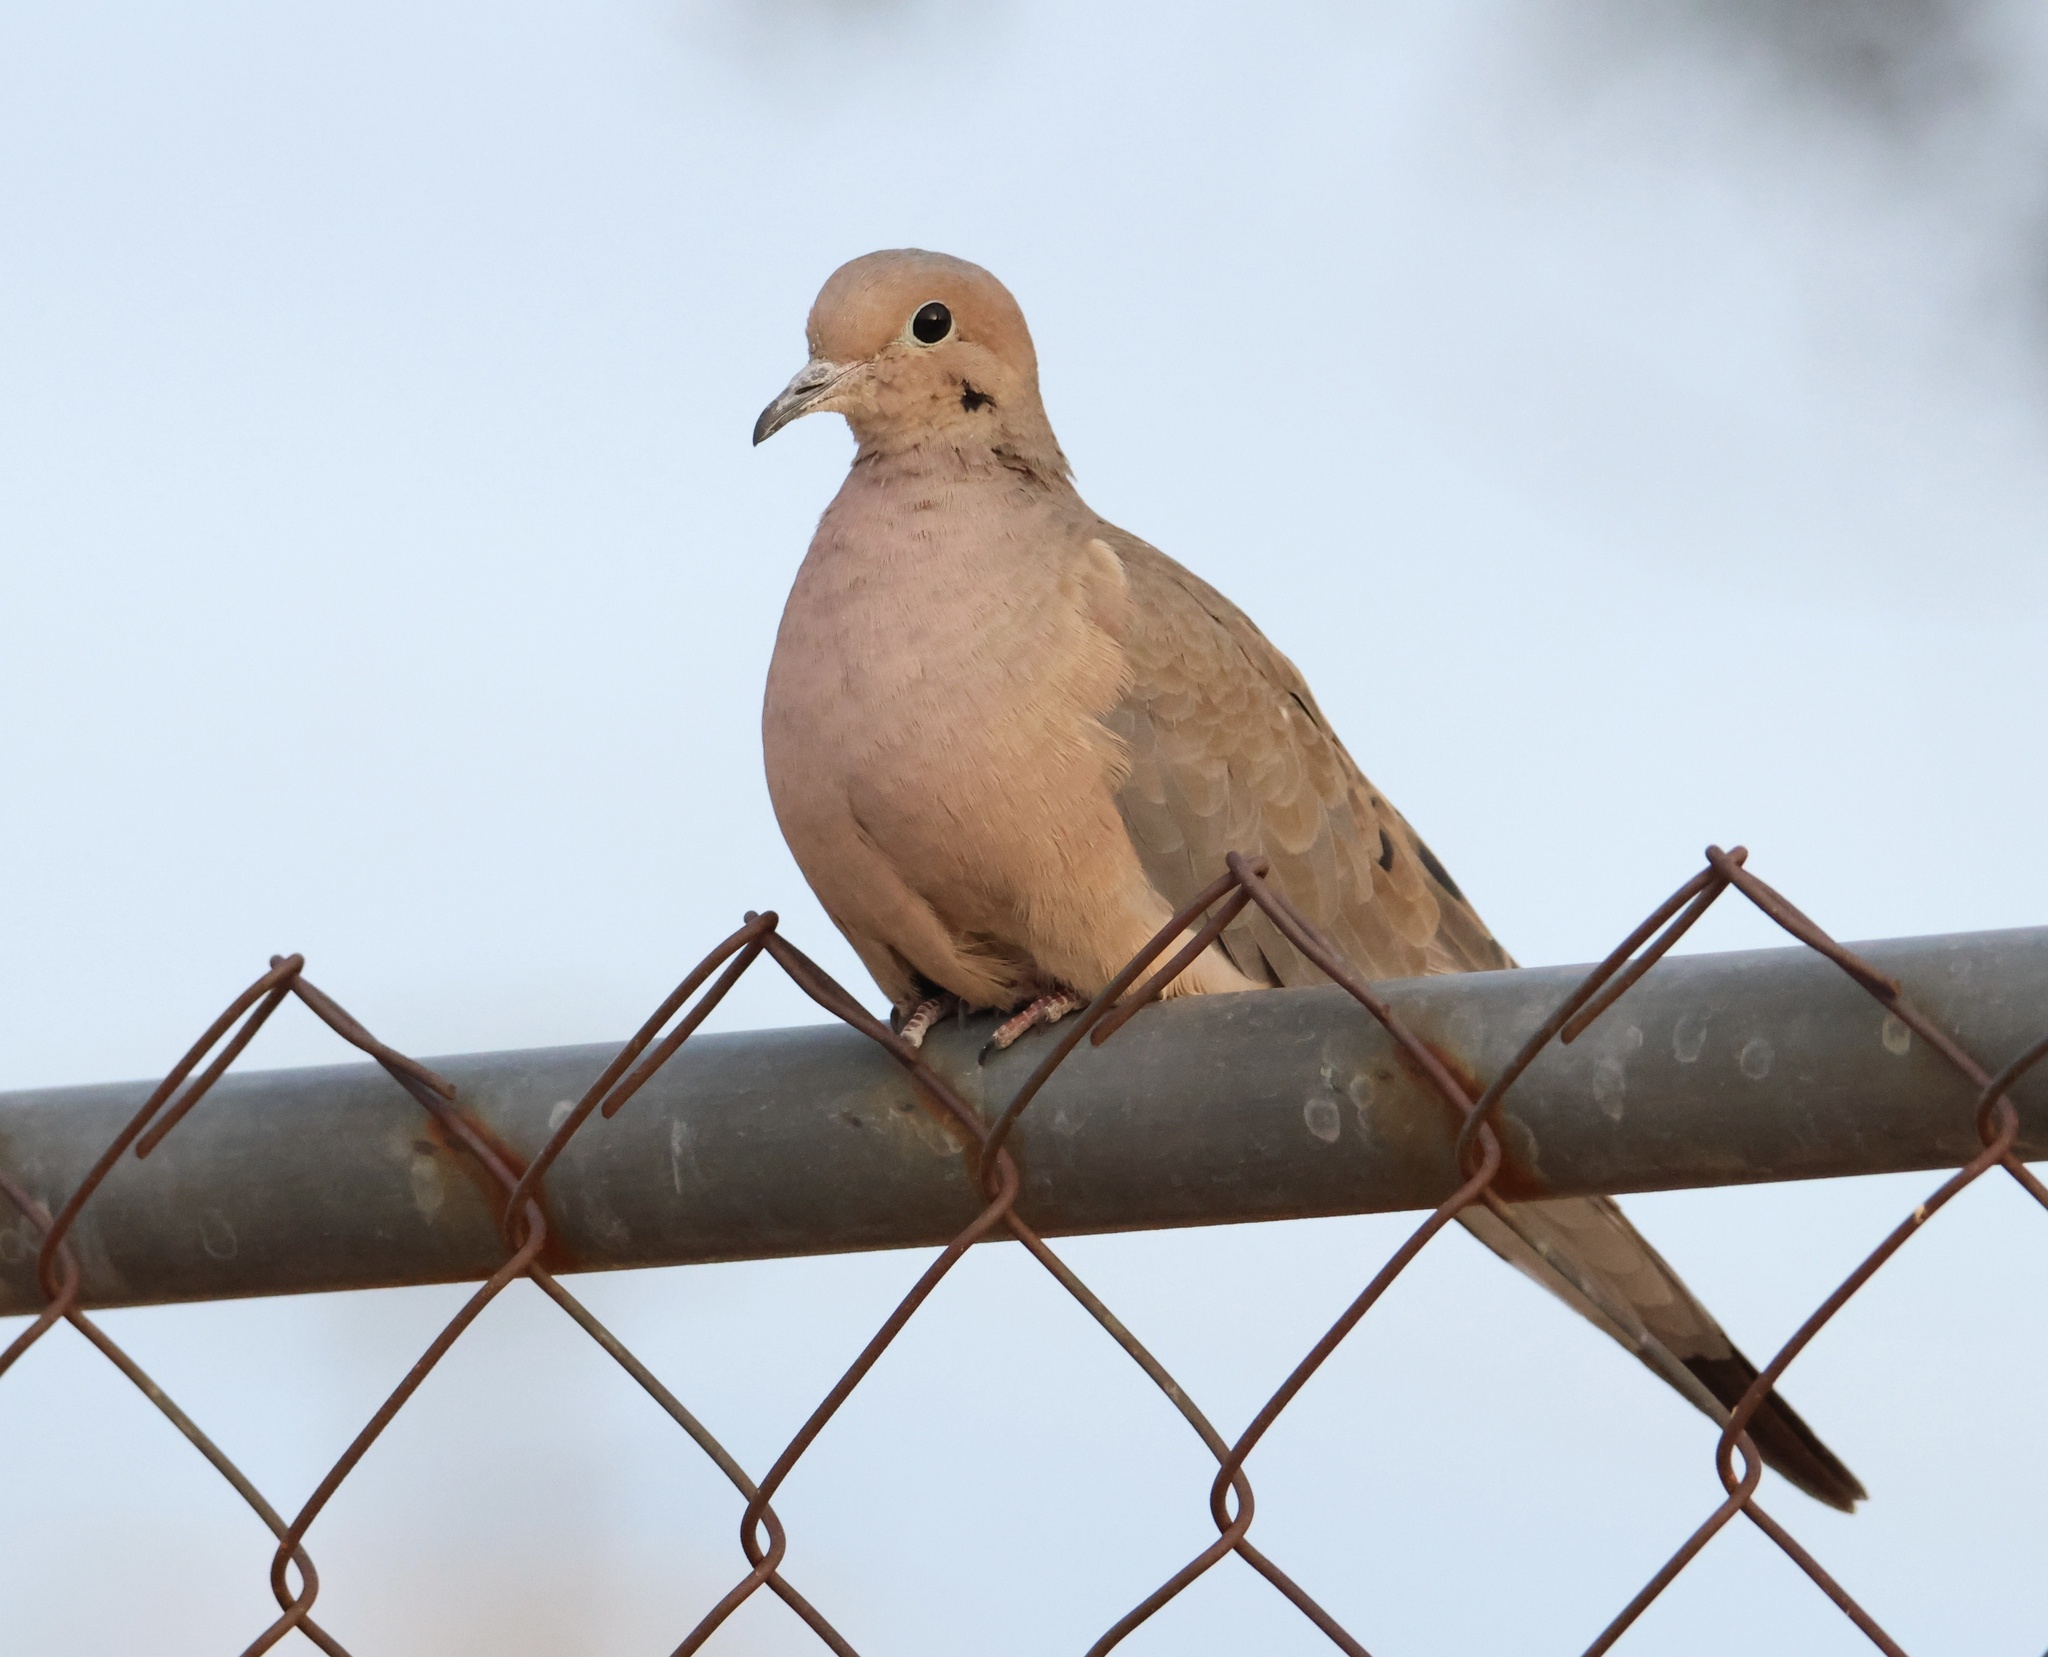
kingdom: Animalia
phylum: Chordata
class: Aves
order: Columbiformes
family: Columbidae
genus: Zenaida
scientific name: Zenaida macroura
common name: Mourning dove
